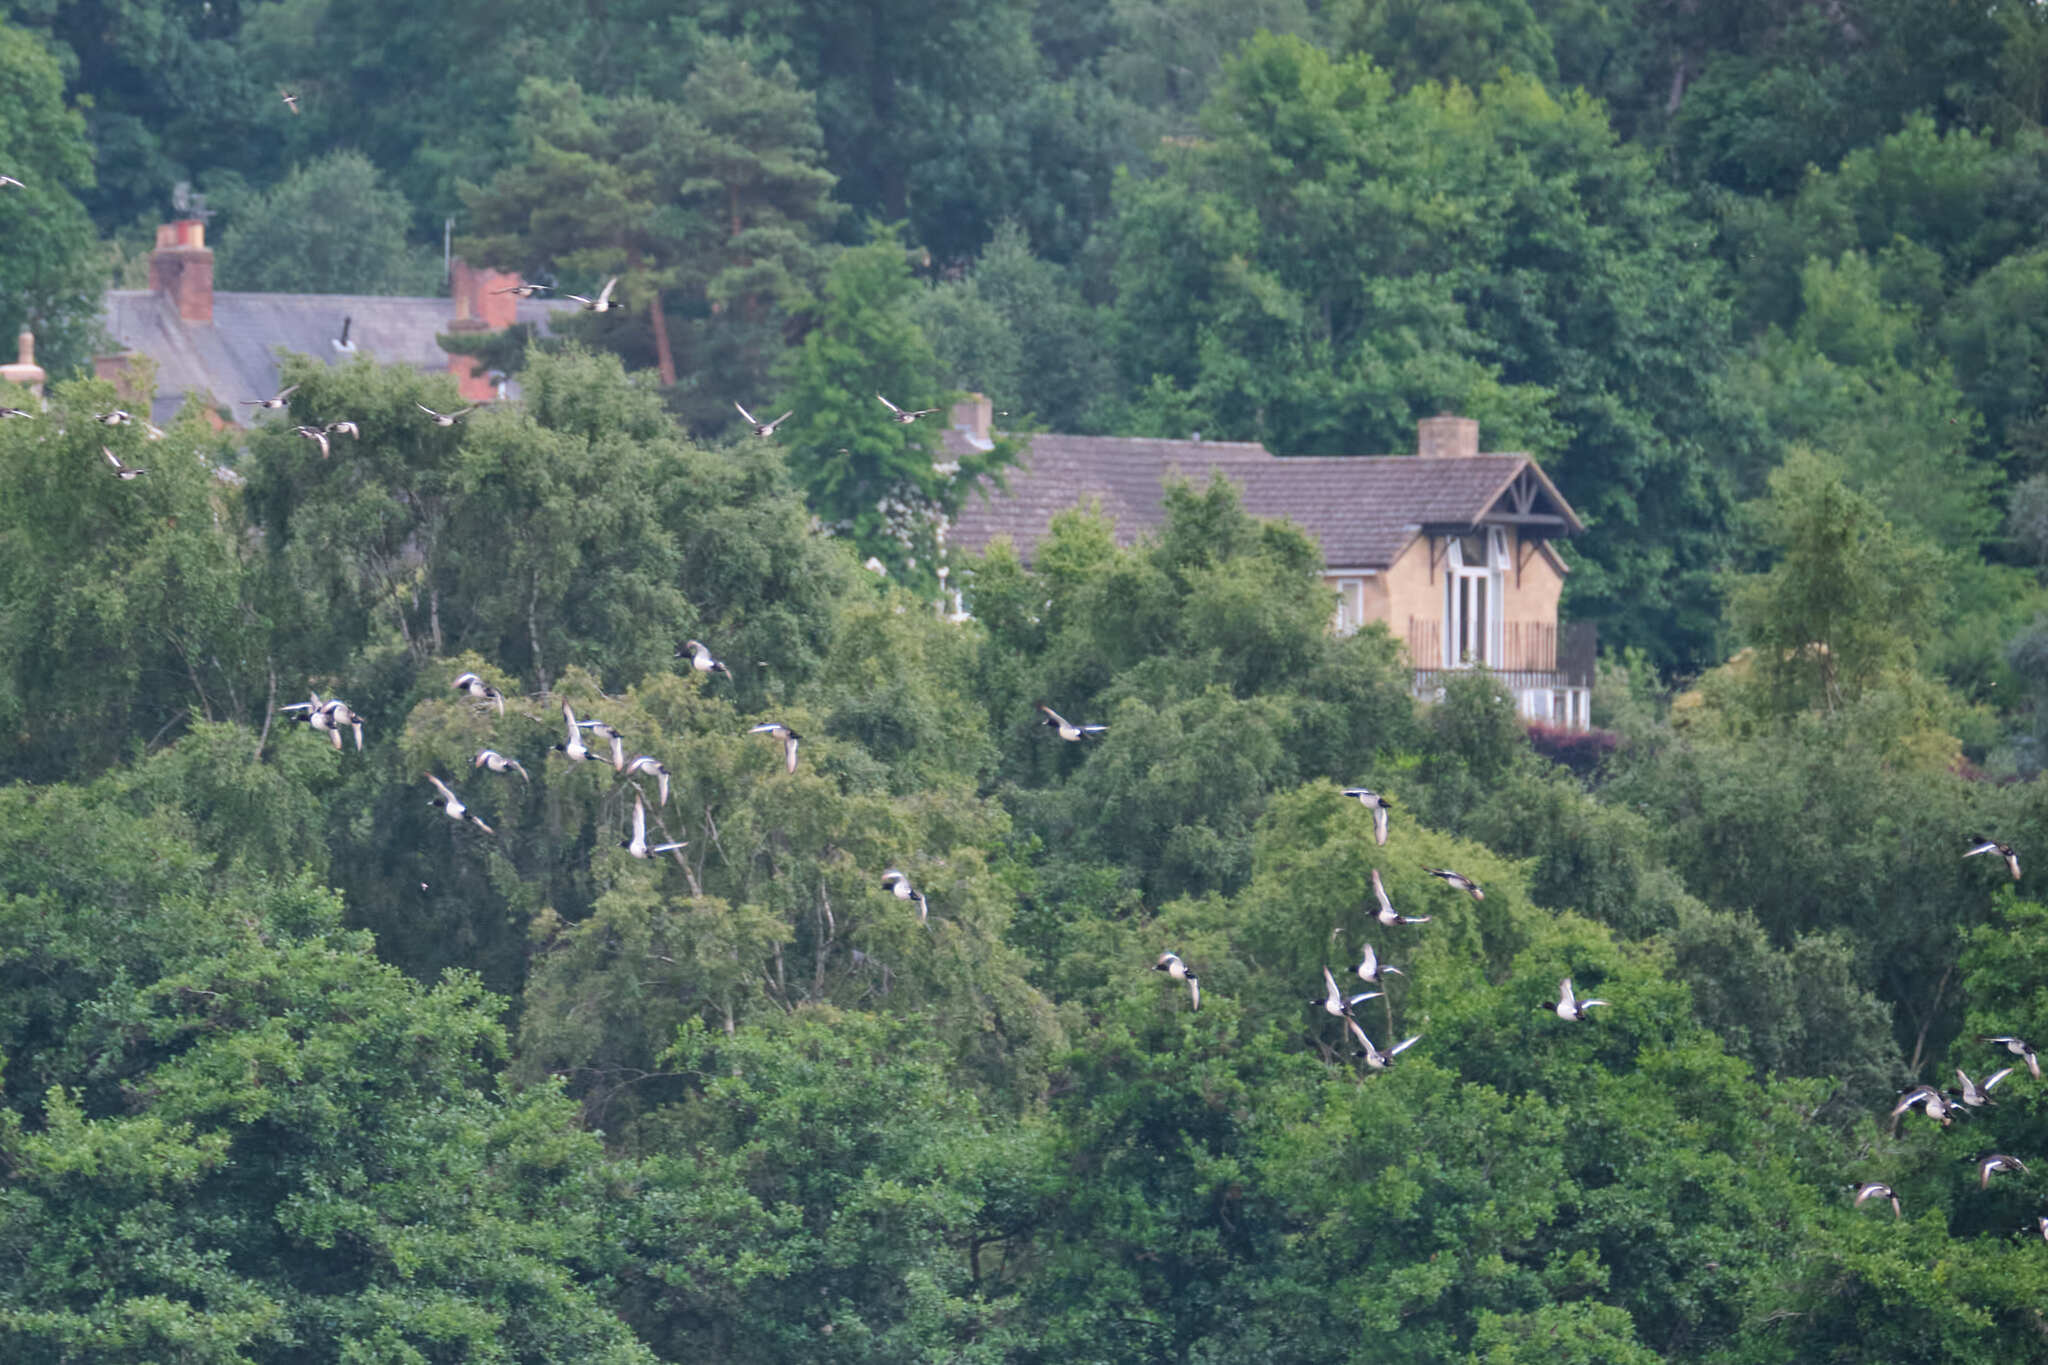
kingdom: Animalia
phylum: Chordata
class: Aves
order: Anseriformes
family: Anatidae
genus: Aythya
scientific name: Aythya fuligula
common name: Tufted duck
